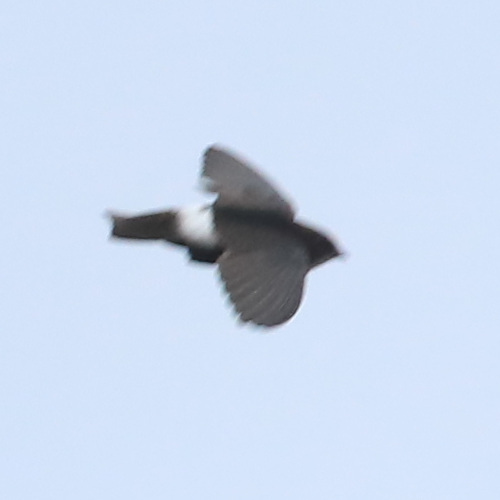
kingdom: Animalia
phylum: Chordata
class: Aves
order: Apodiformes
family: Apodidae
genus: Apus
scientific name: Apus affinis
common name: Little swift
